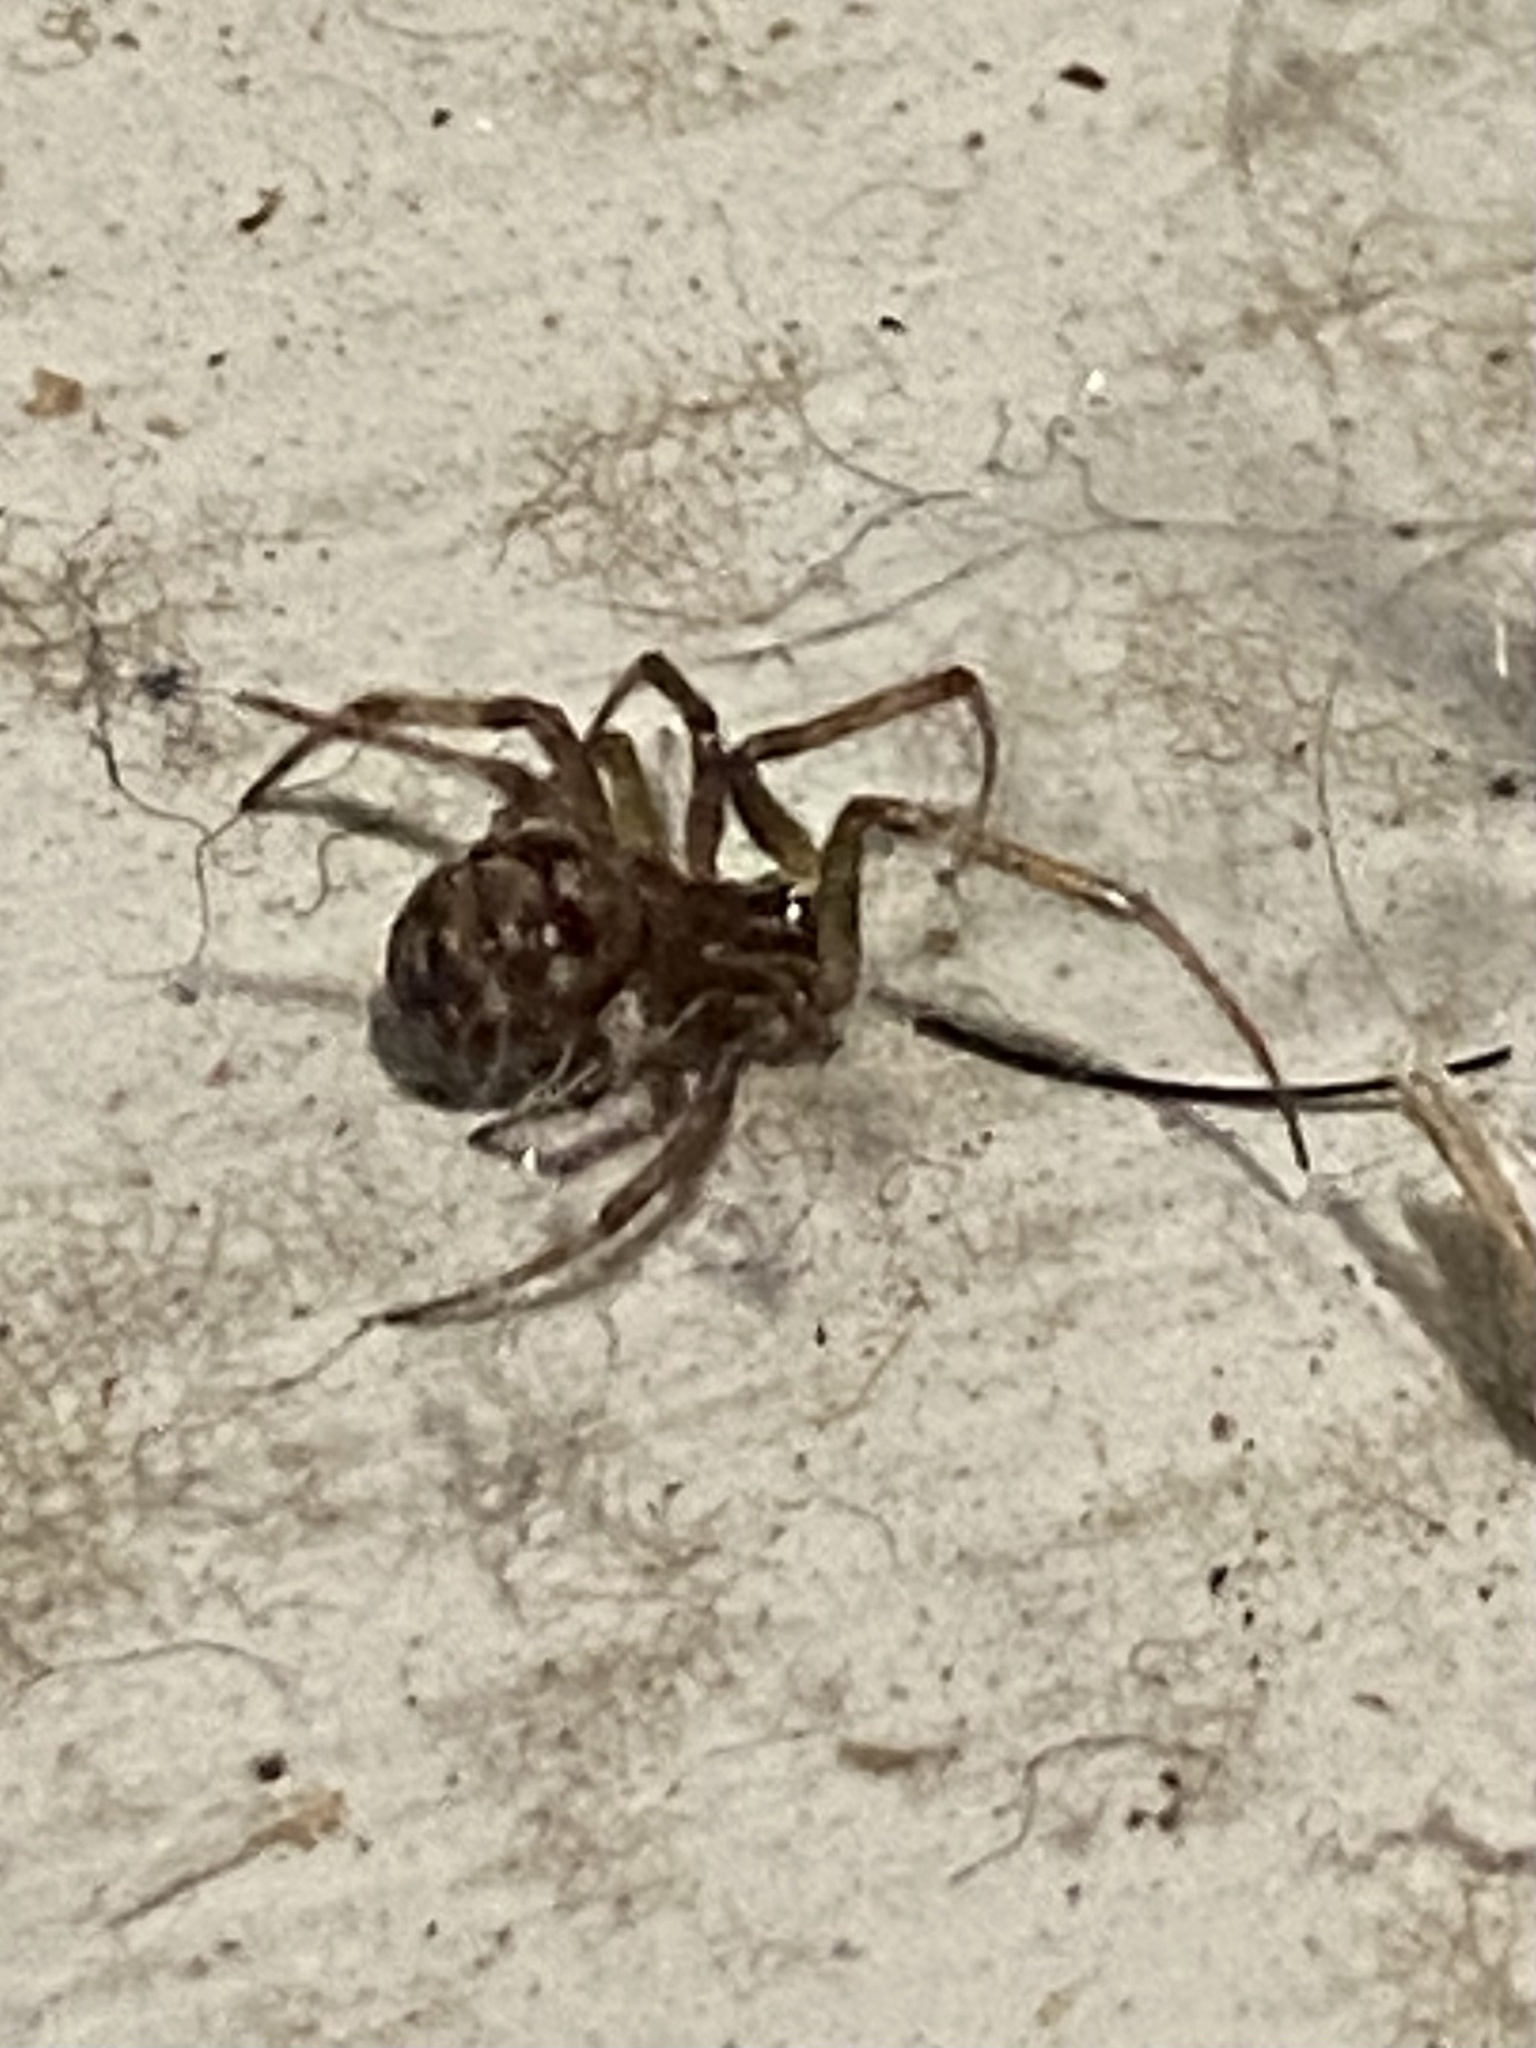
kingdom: Animalia
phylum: Arthropoda
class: Arachnida
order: Araneae
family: Theridiidae
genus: Steatoda
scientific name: Steatoda triangulosa
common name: Triangulate bud spider
